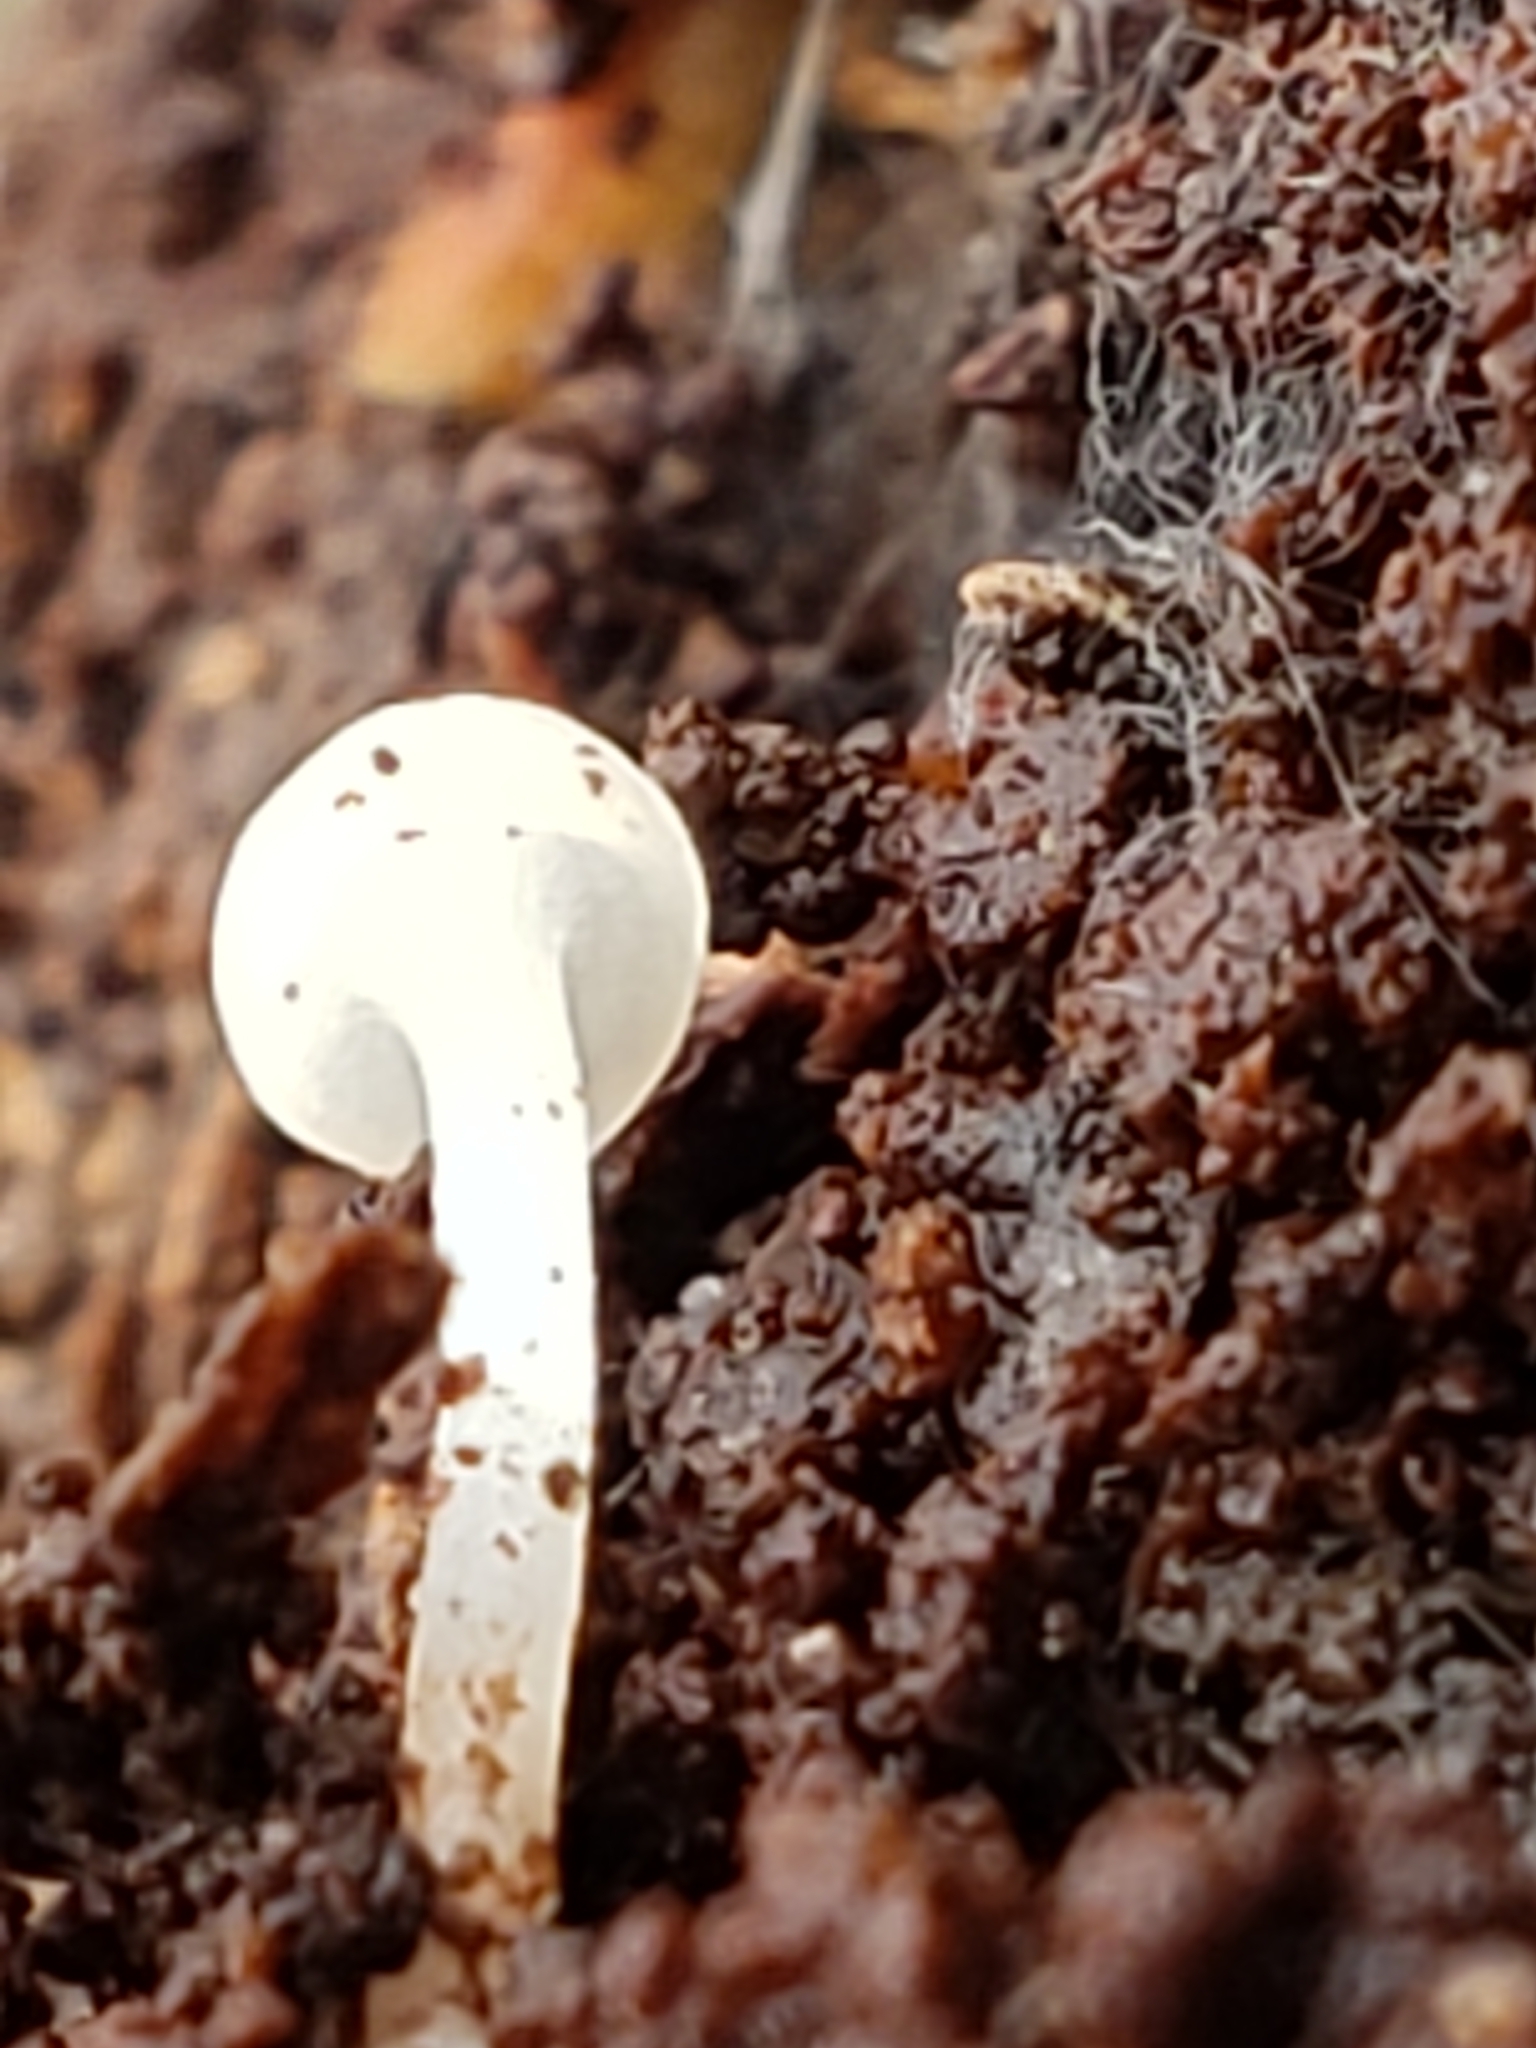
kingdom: Fungi
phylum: Ascomycota
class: Leotiomycetes
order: Helotiales
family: Tricladiaceae
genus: Cudoniella
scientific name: Cudoniella acicularis
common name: Oak pin
